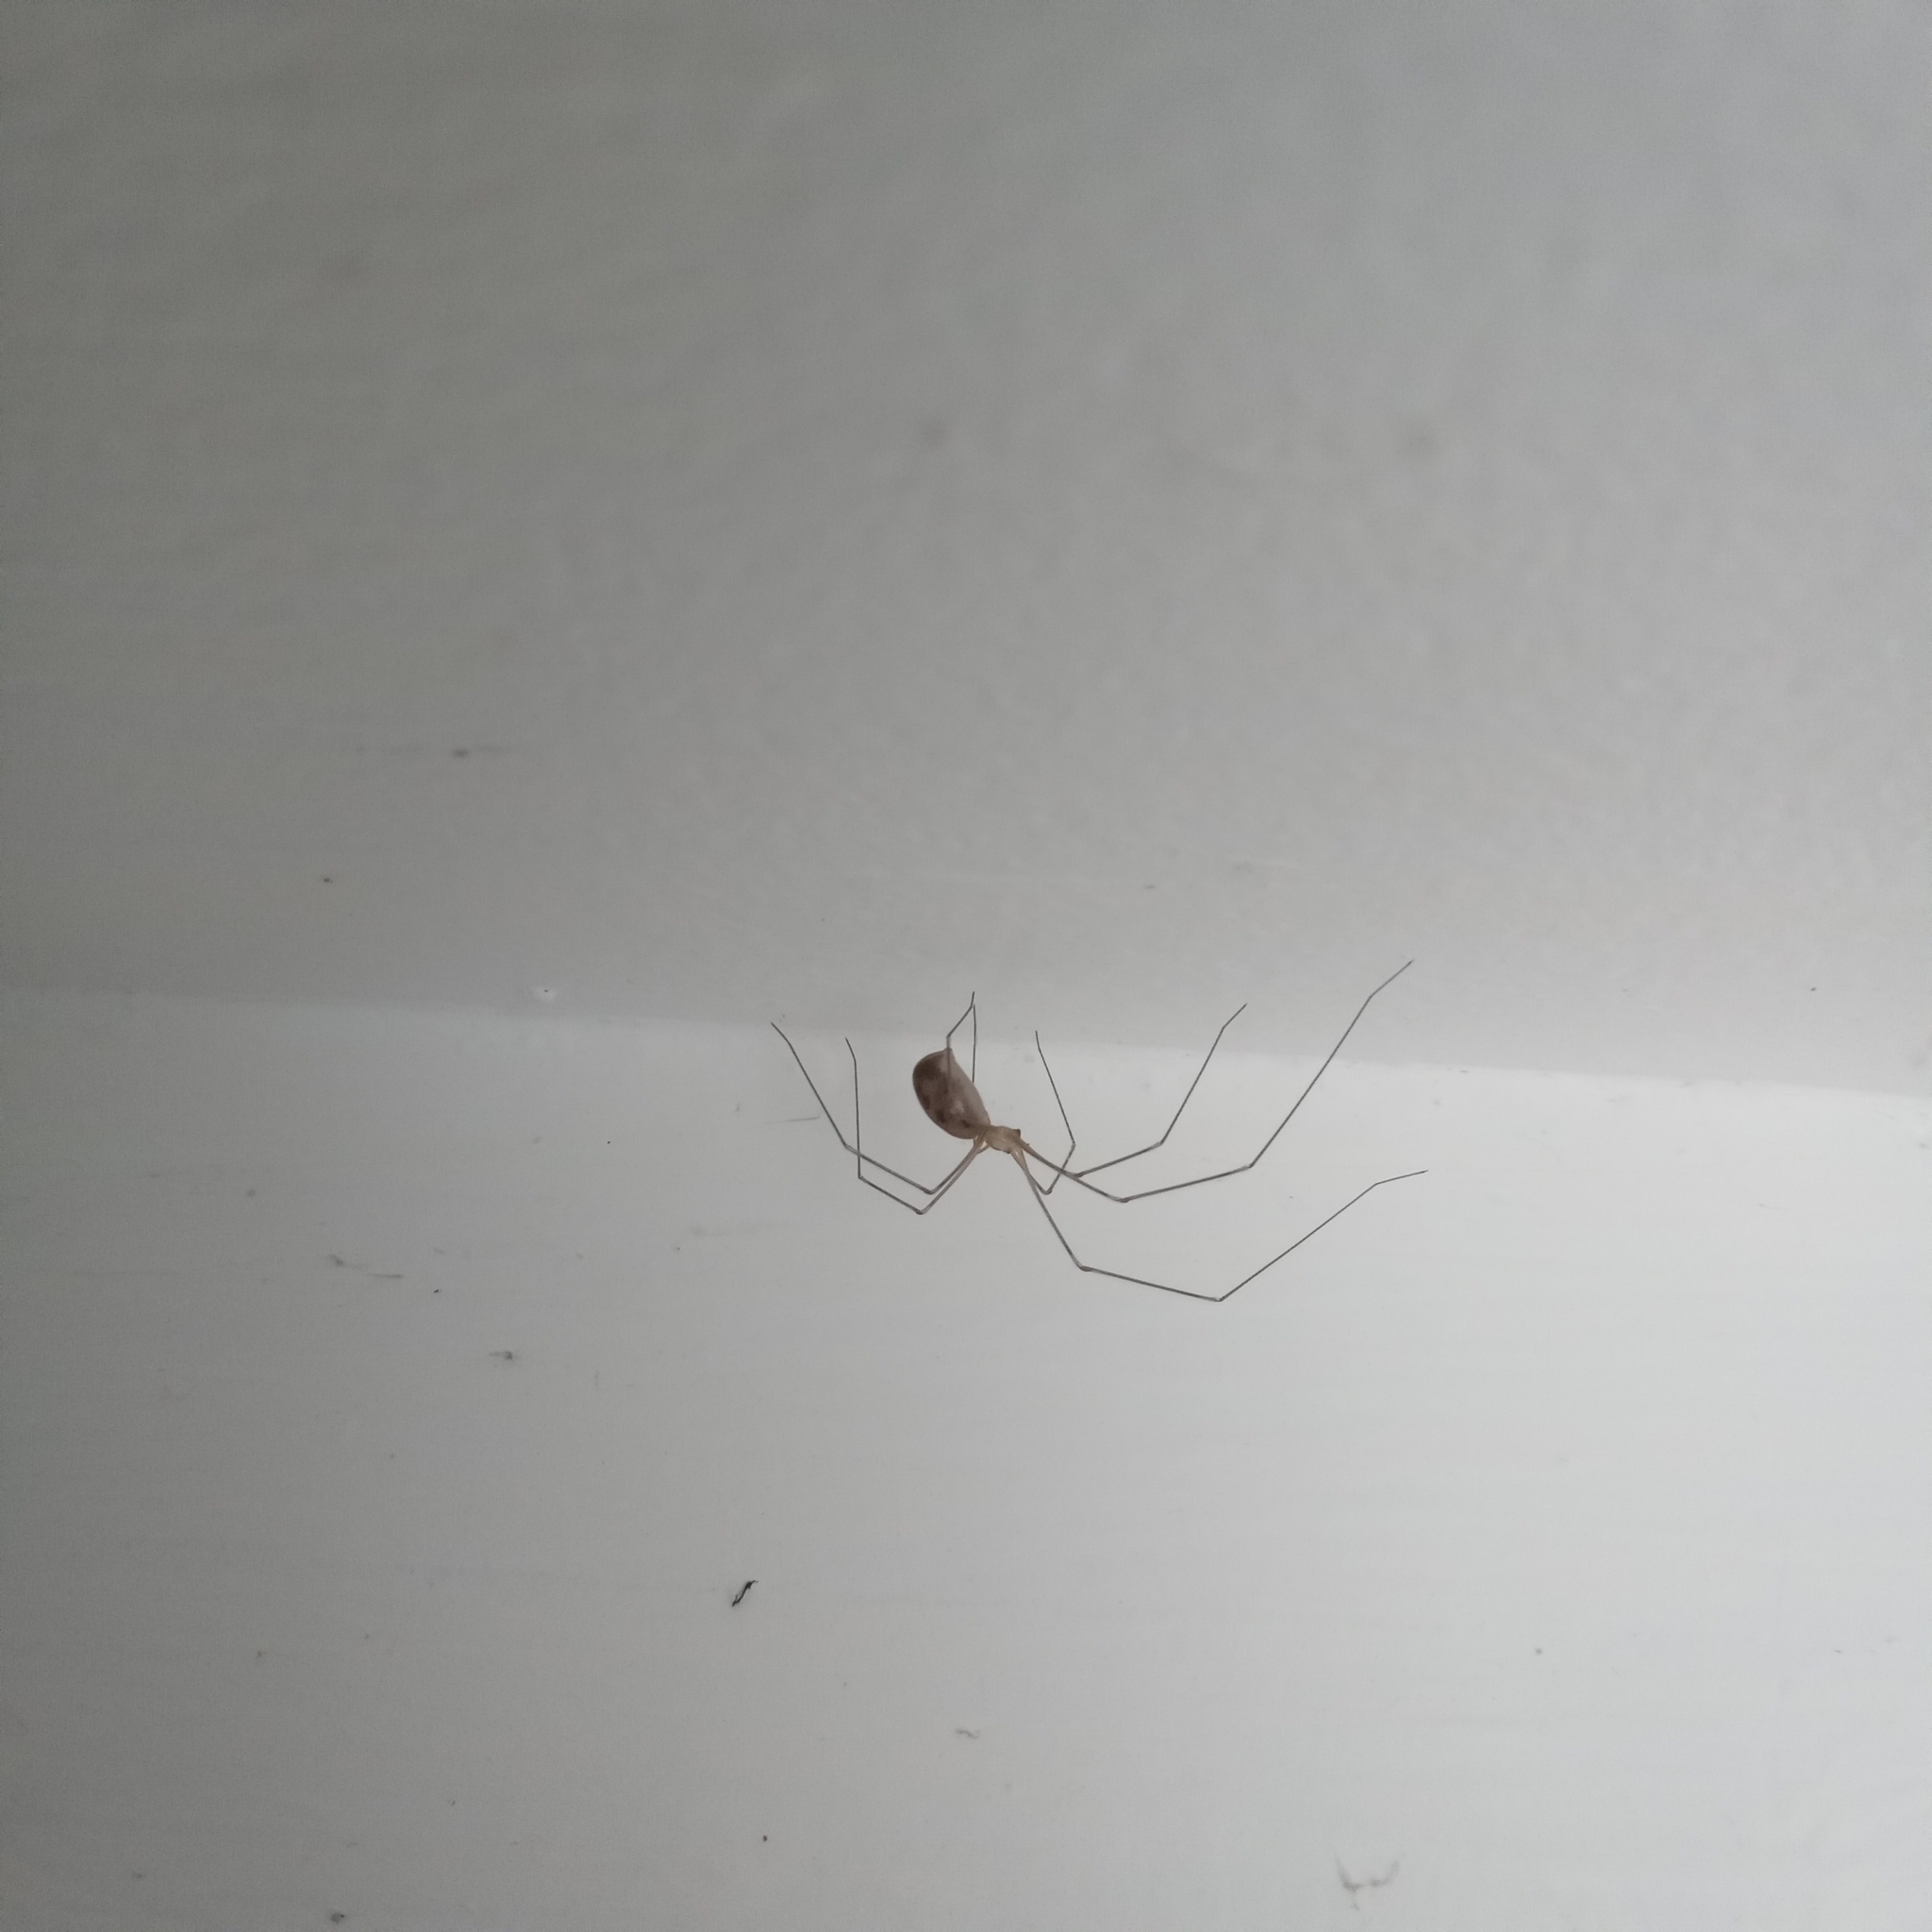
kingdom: Animalia
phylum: Arthropoda
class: Arachnida
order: Araneae
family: Pholcidae
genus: Pholcus
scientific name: Pholcus phalangioides
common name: Longbodied cellar spider
